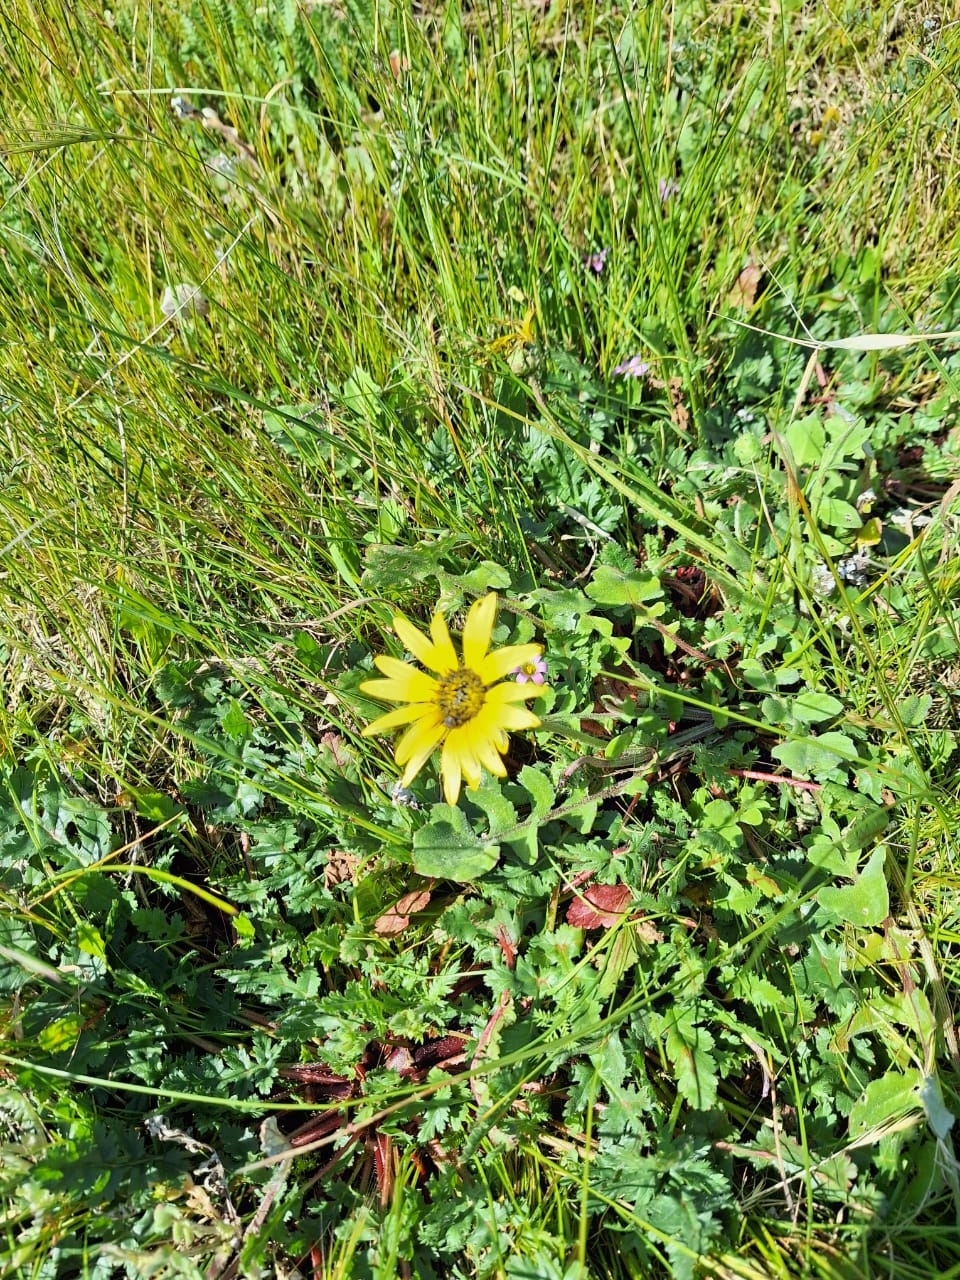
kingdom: Plantae
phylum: Tracheophyta
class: Magnoliopsida
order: Asterales
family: Asteraceae
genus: Arctotheca
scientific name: Arctotheca calendula
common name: Capeweed
